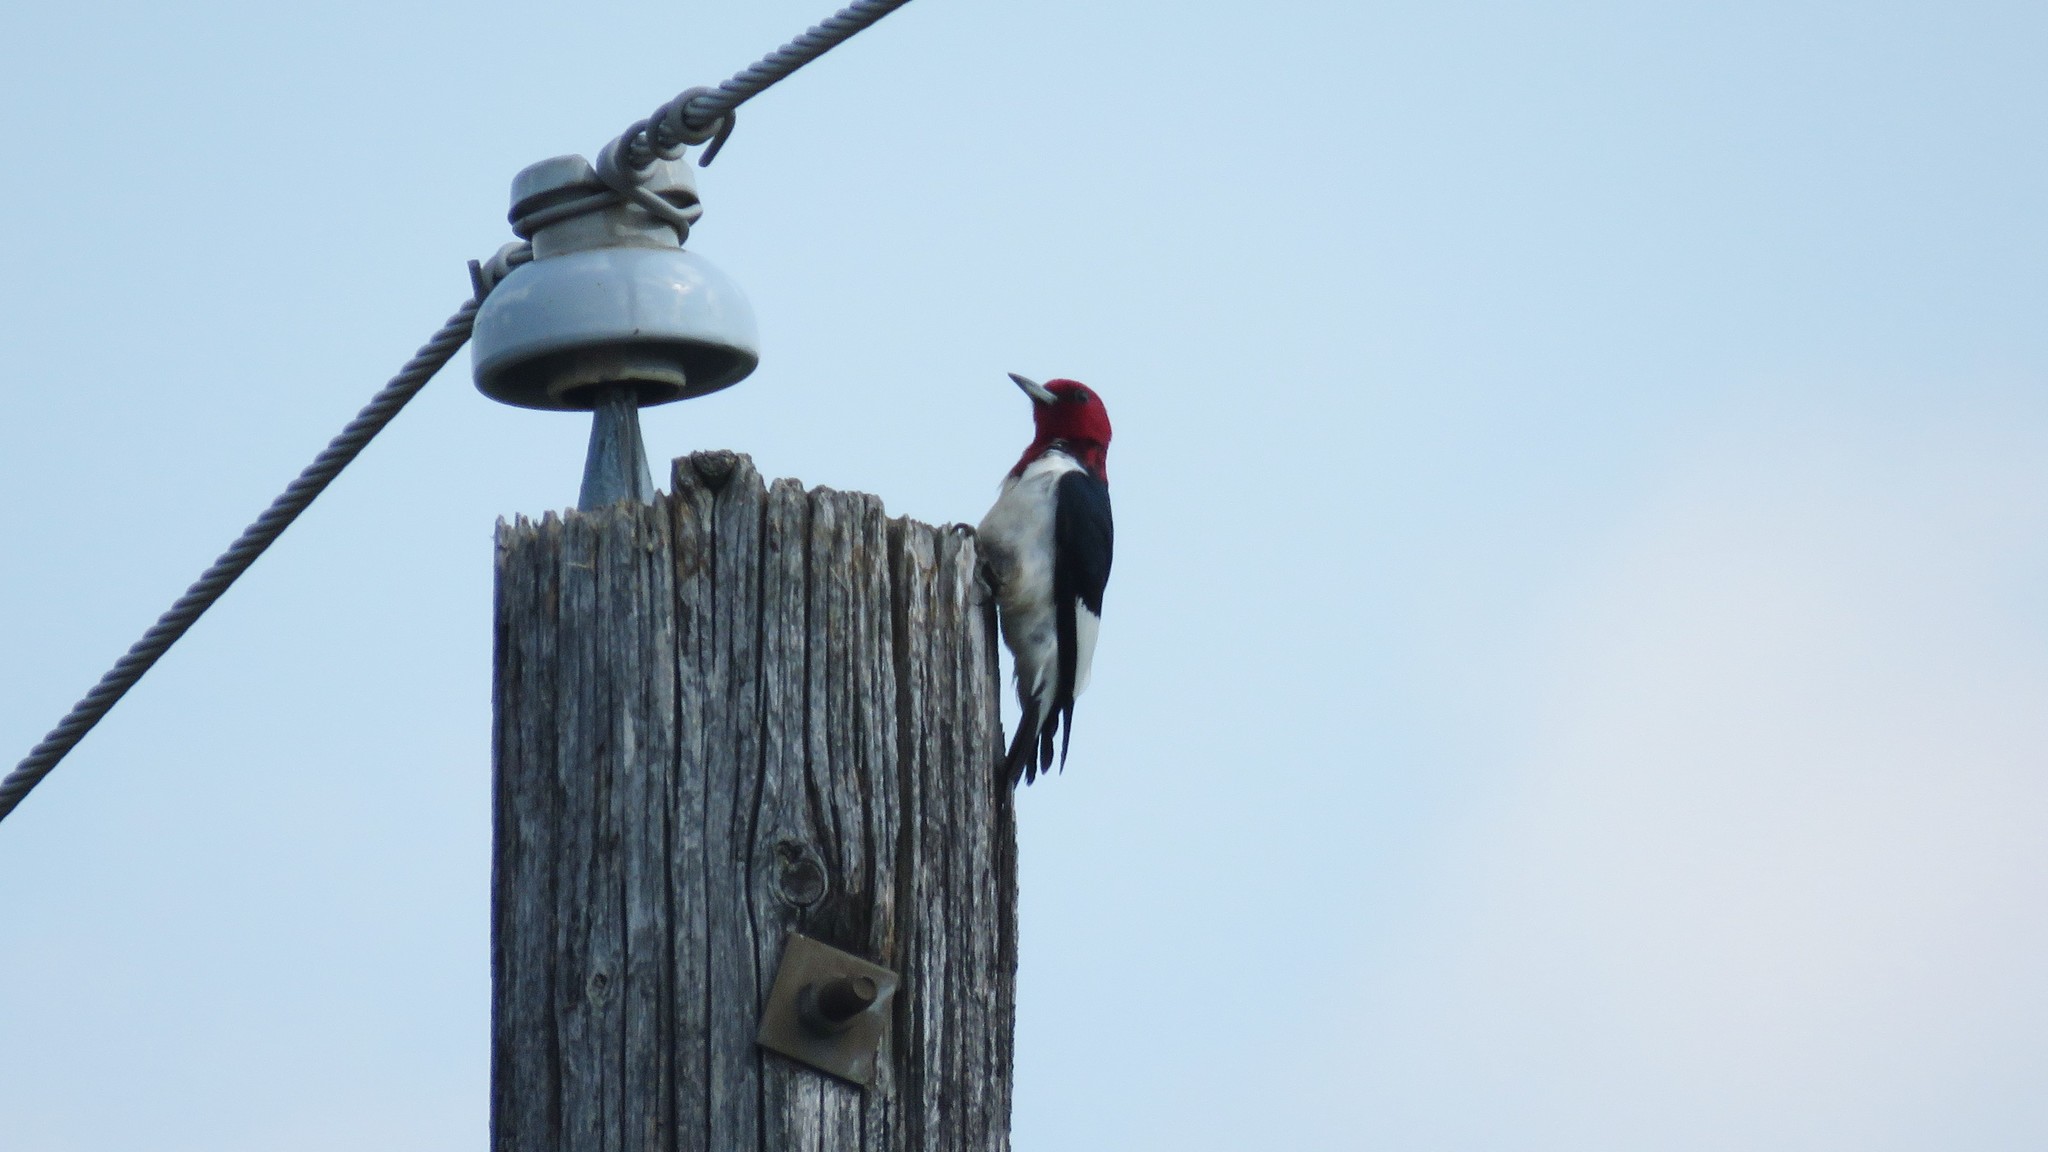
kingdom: Animalia
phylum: Chordata
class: Aves
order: Piciformes
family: Picidae
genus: Melanerpes
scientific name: Melanerpes erythrocephalus
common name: Red-headed woodpecker
